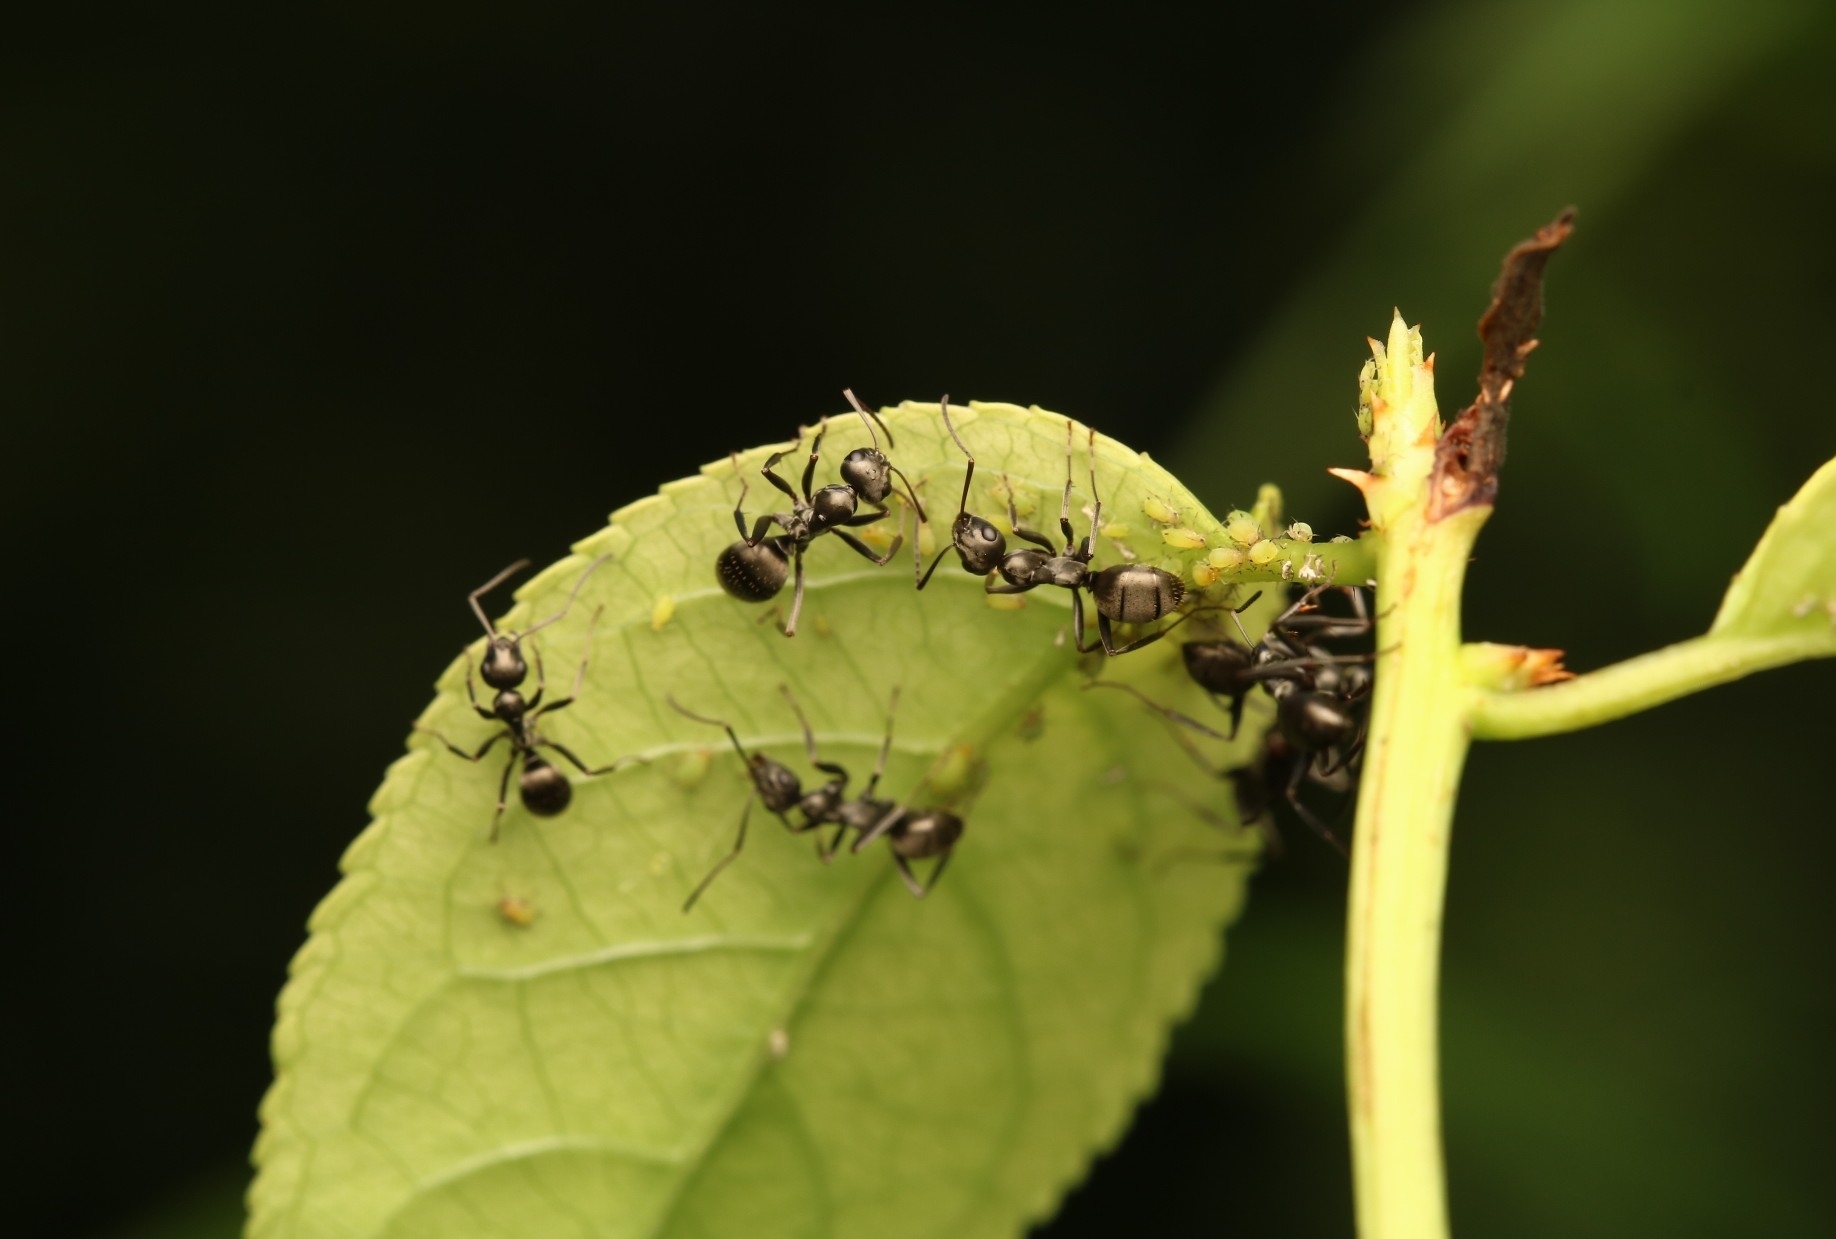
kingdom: Animalia
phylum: Arthropoda
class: Insecta
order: Hymenoptera
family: Formicidae
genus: Formica
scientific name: Formica subsericea
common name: Silky field ant
